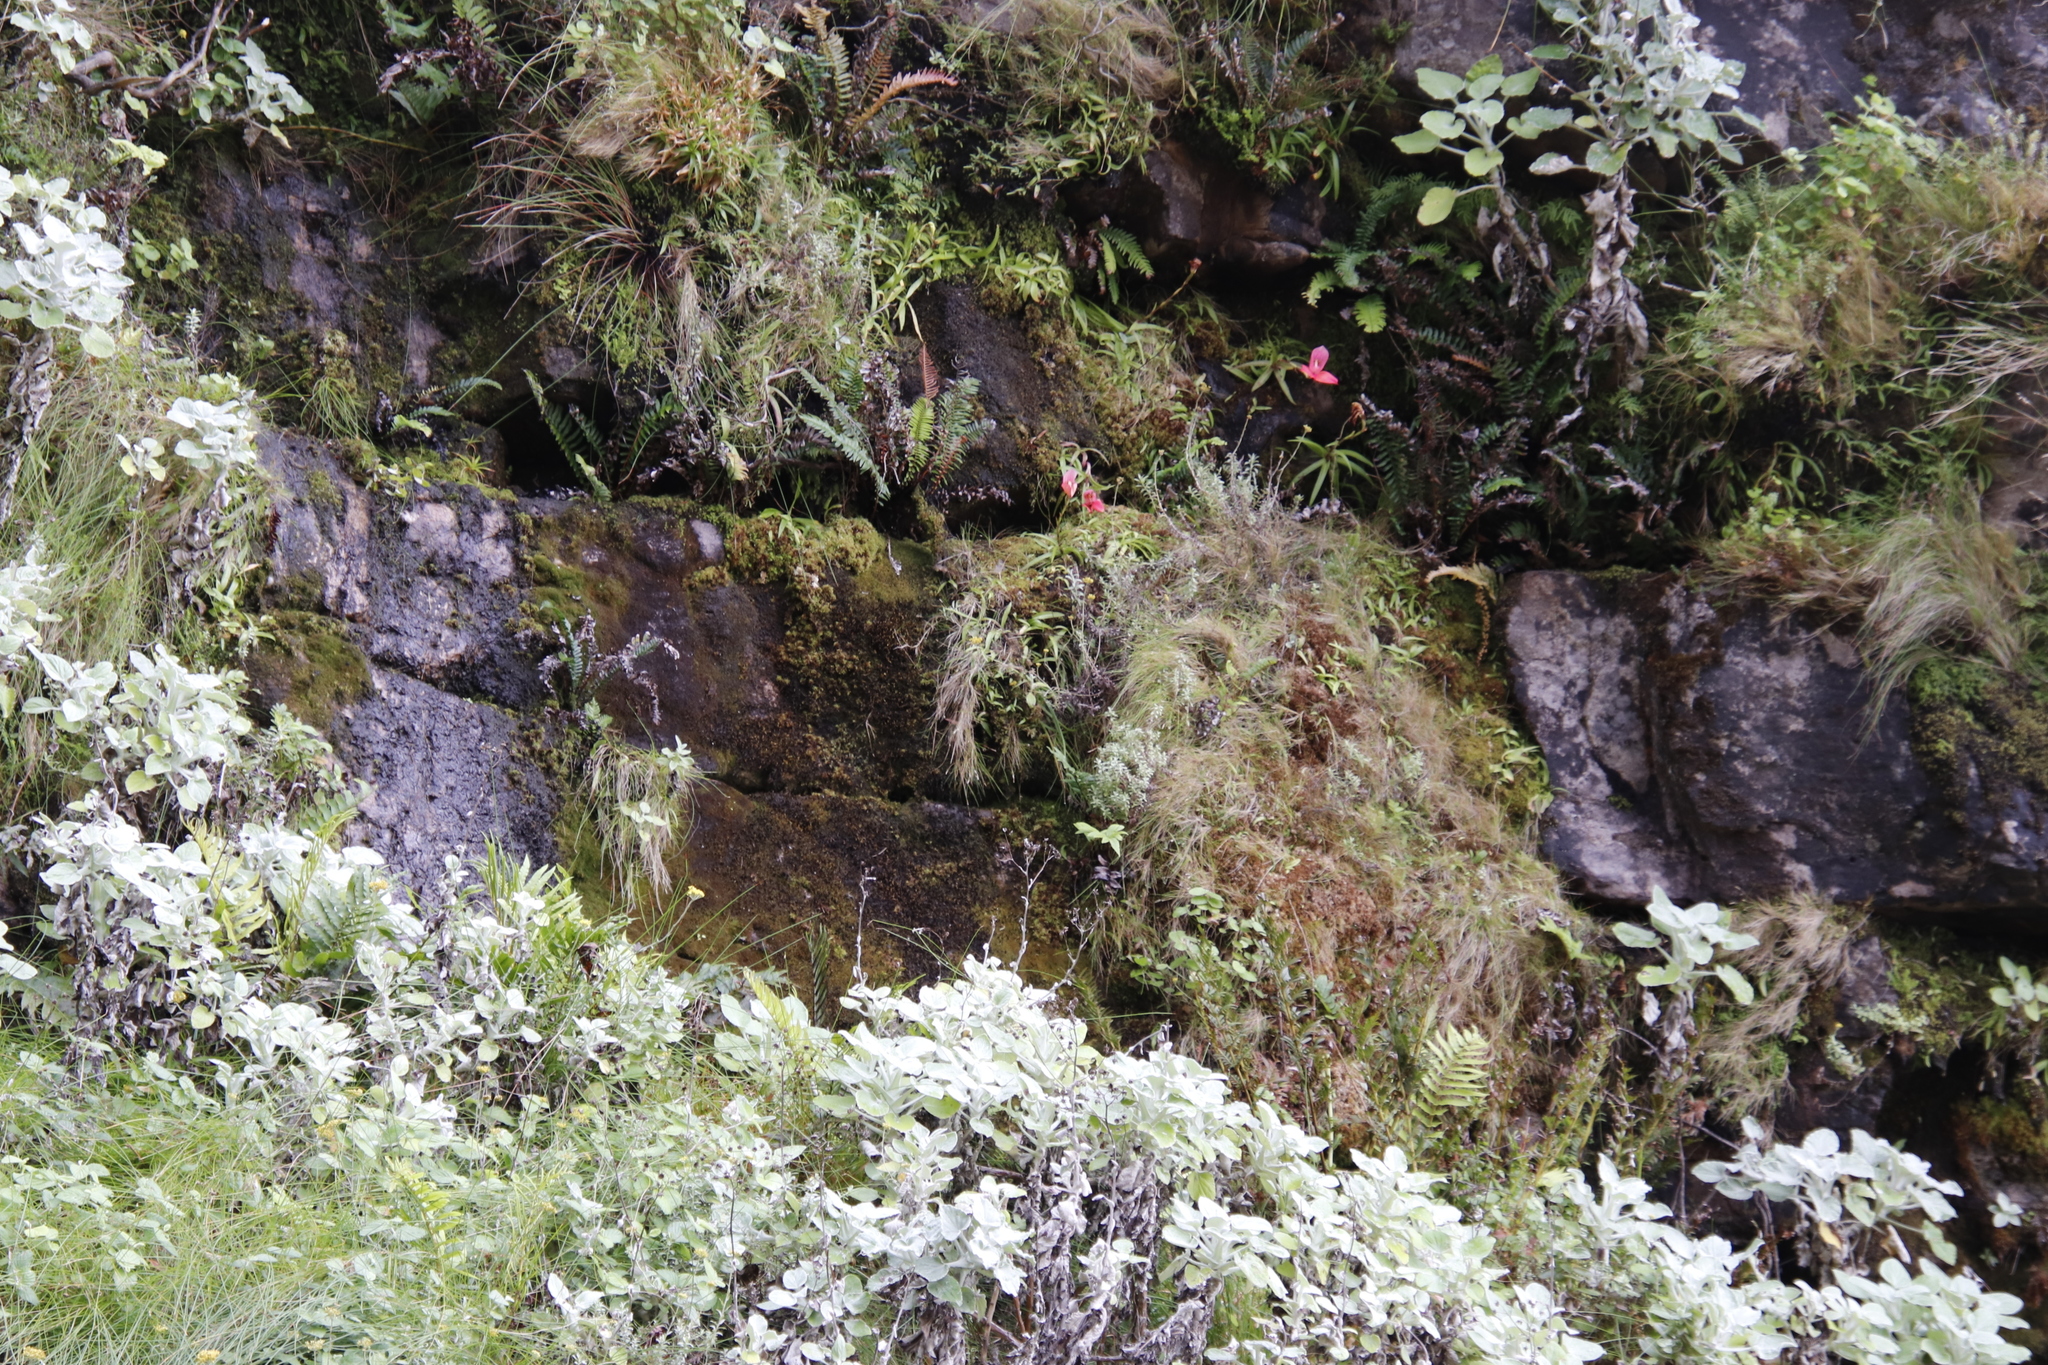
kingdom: Plantae
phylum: Tracheophyta
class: Liliopsida
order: Asparagales
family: Orchidaceae
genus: Disa
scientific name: Disa uniflora
